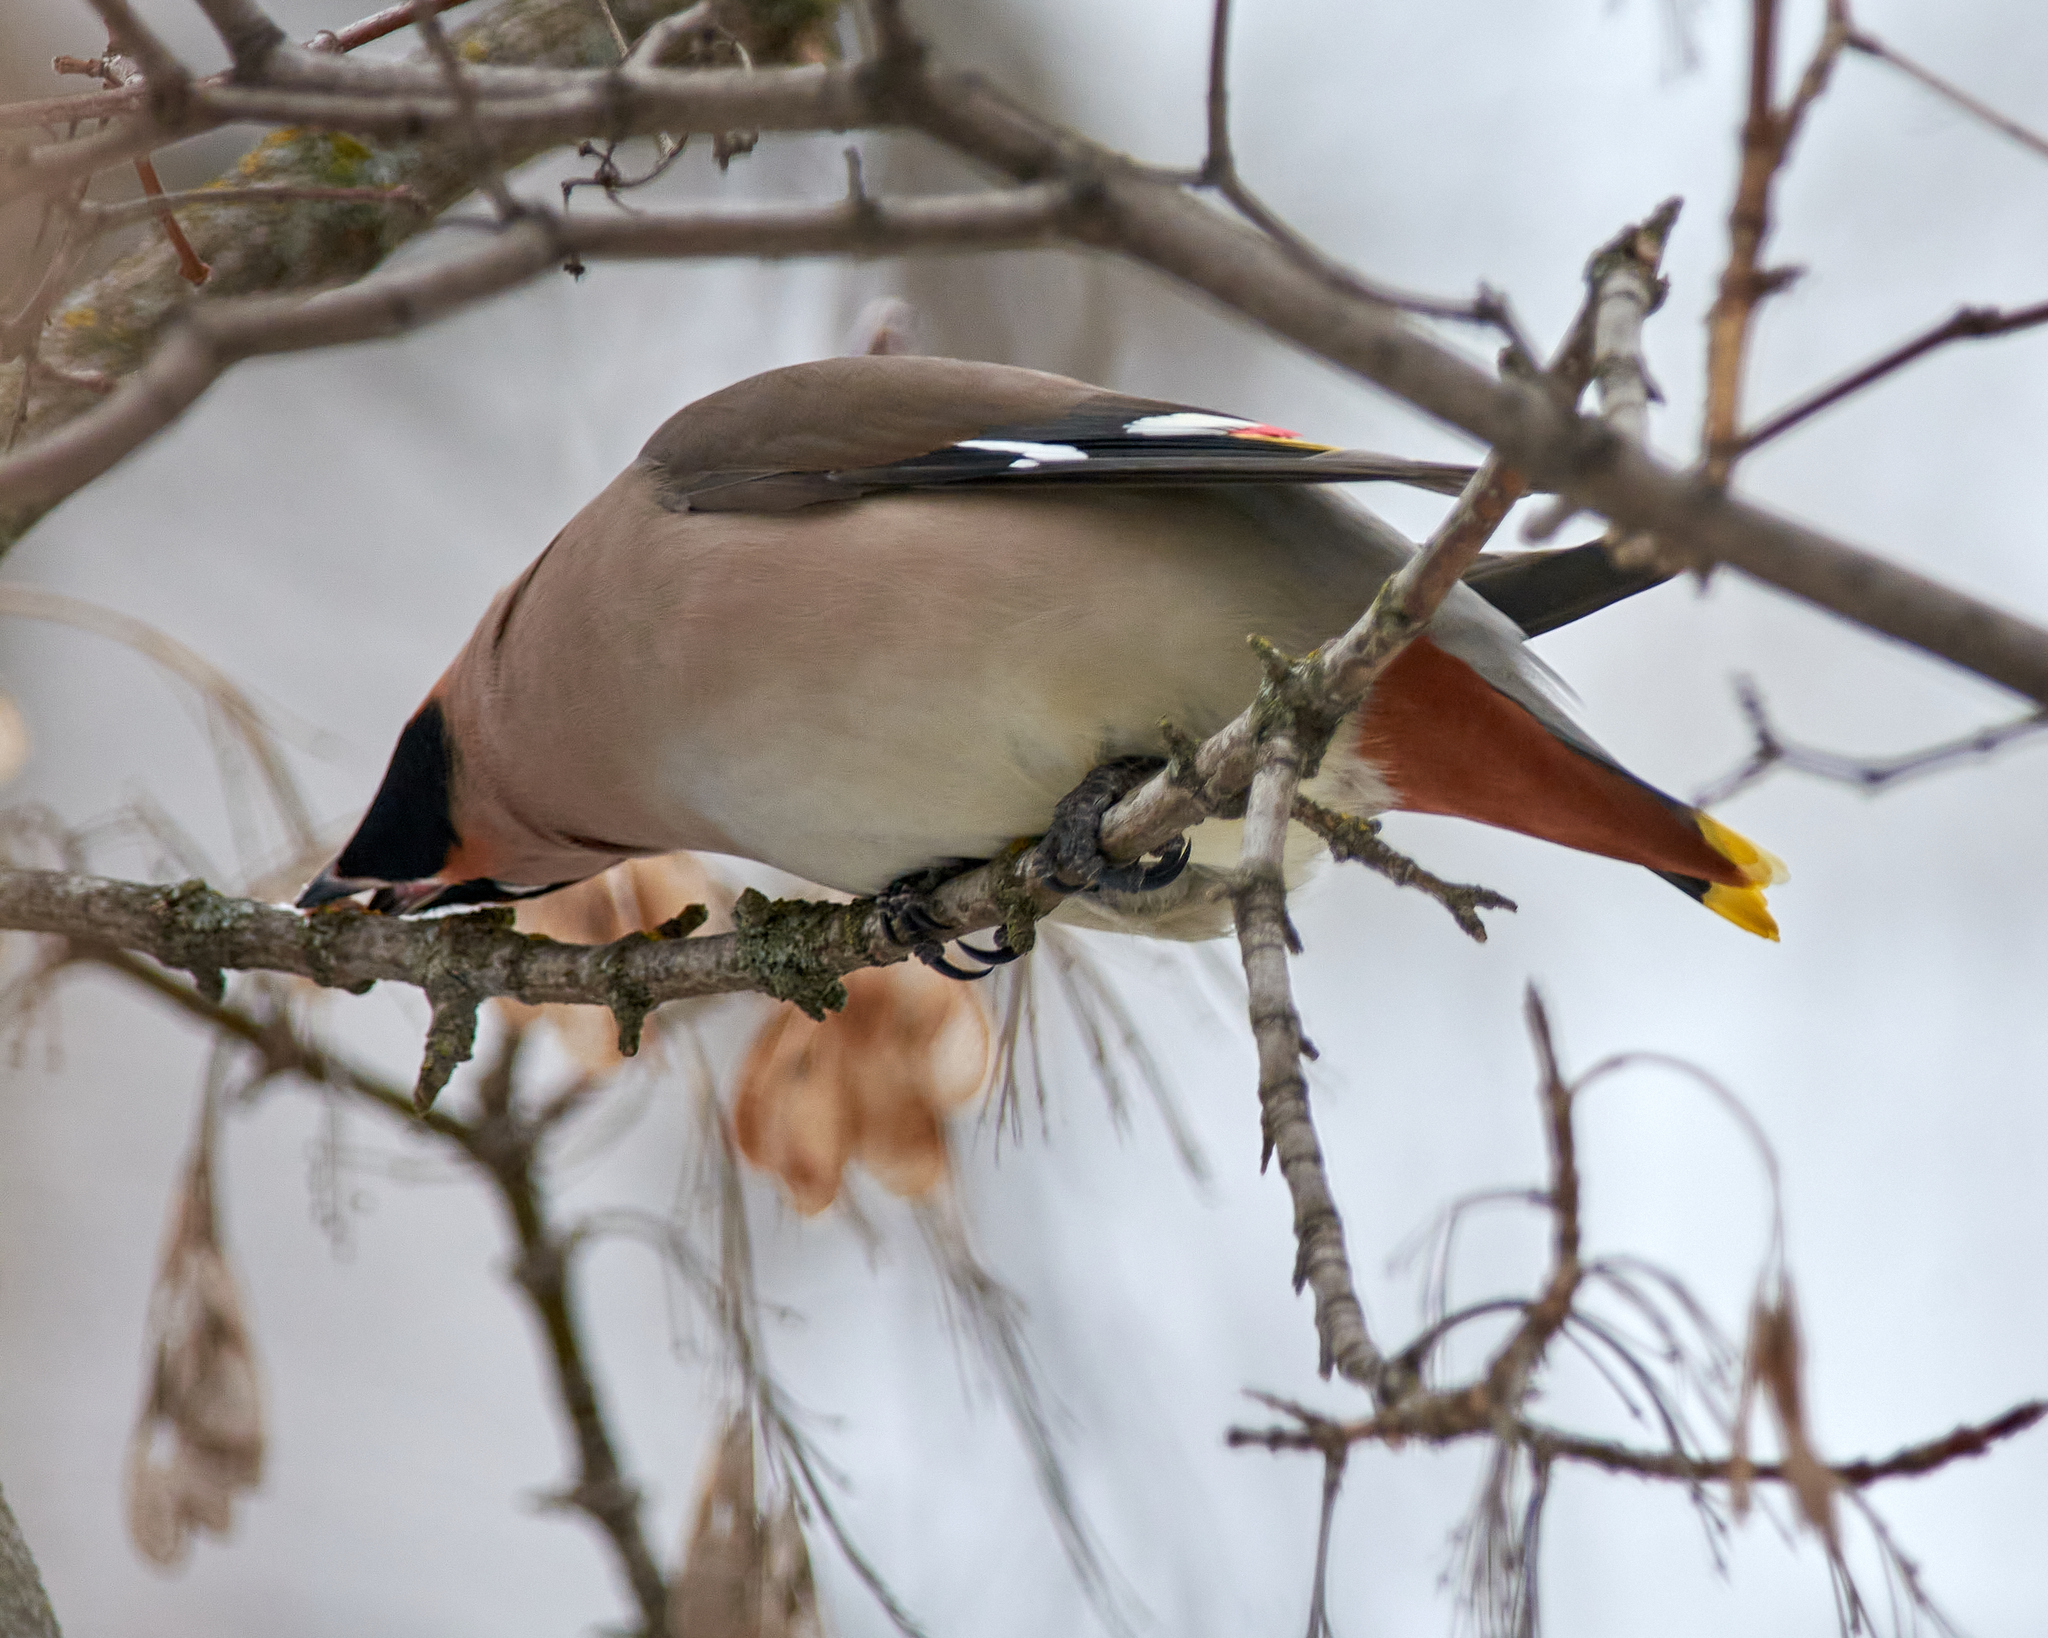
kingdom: Animalia
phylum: Chordata
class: Aves
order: Passeriformes
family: Bombycillidae
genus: Bombycilla
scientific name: Bombycilla garrulus
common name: Bohemian waxwing
